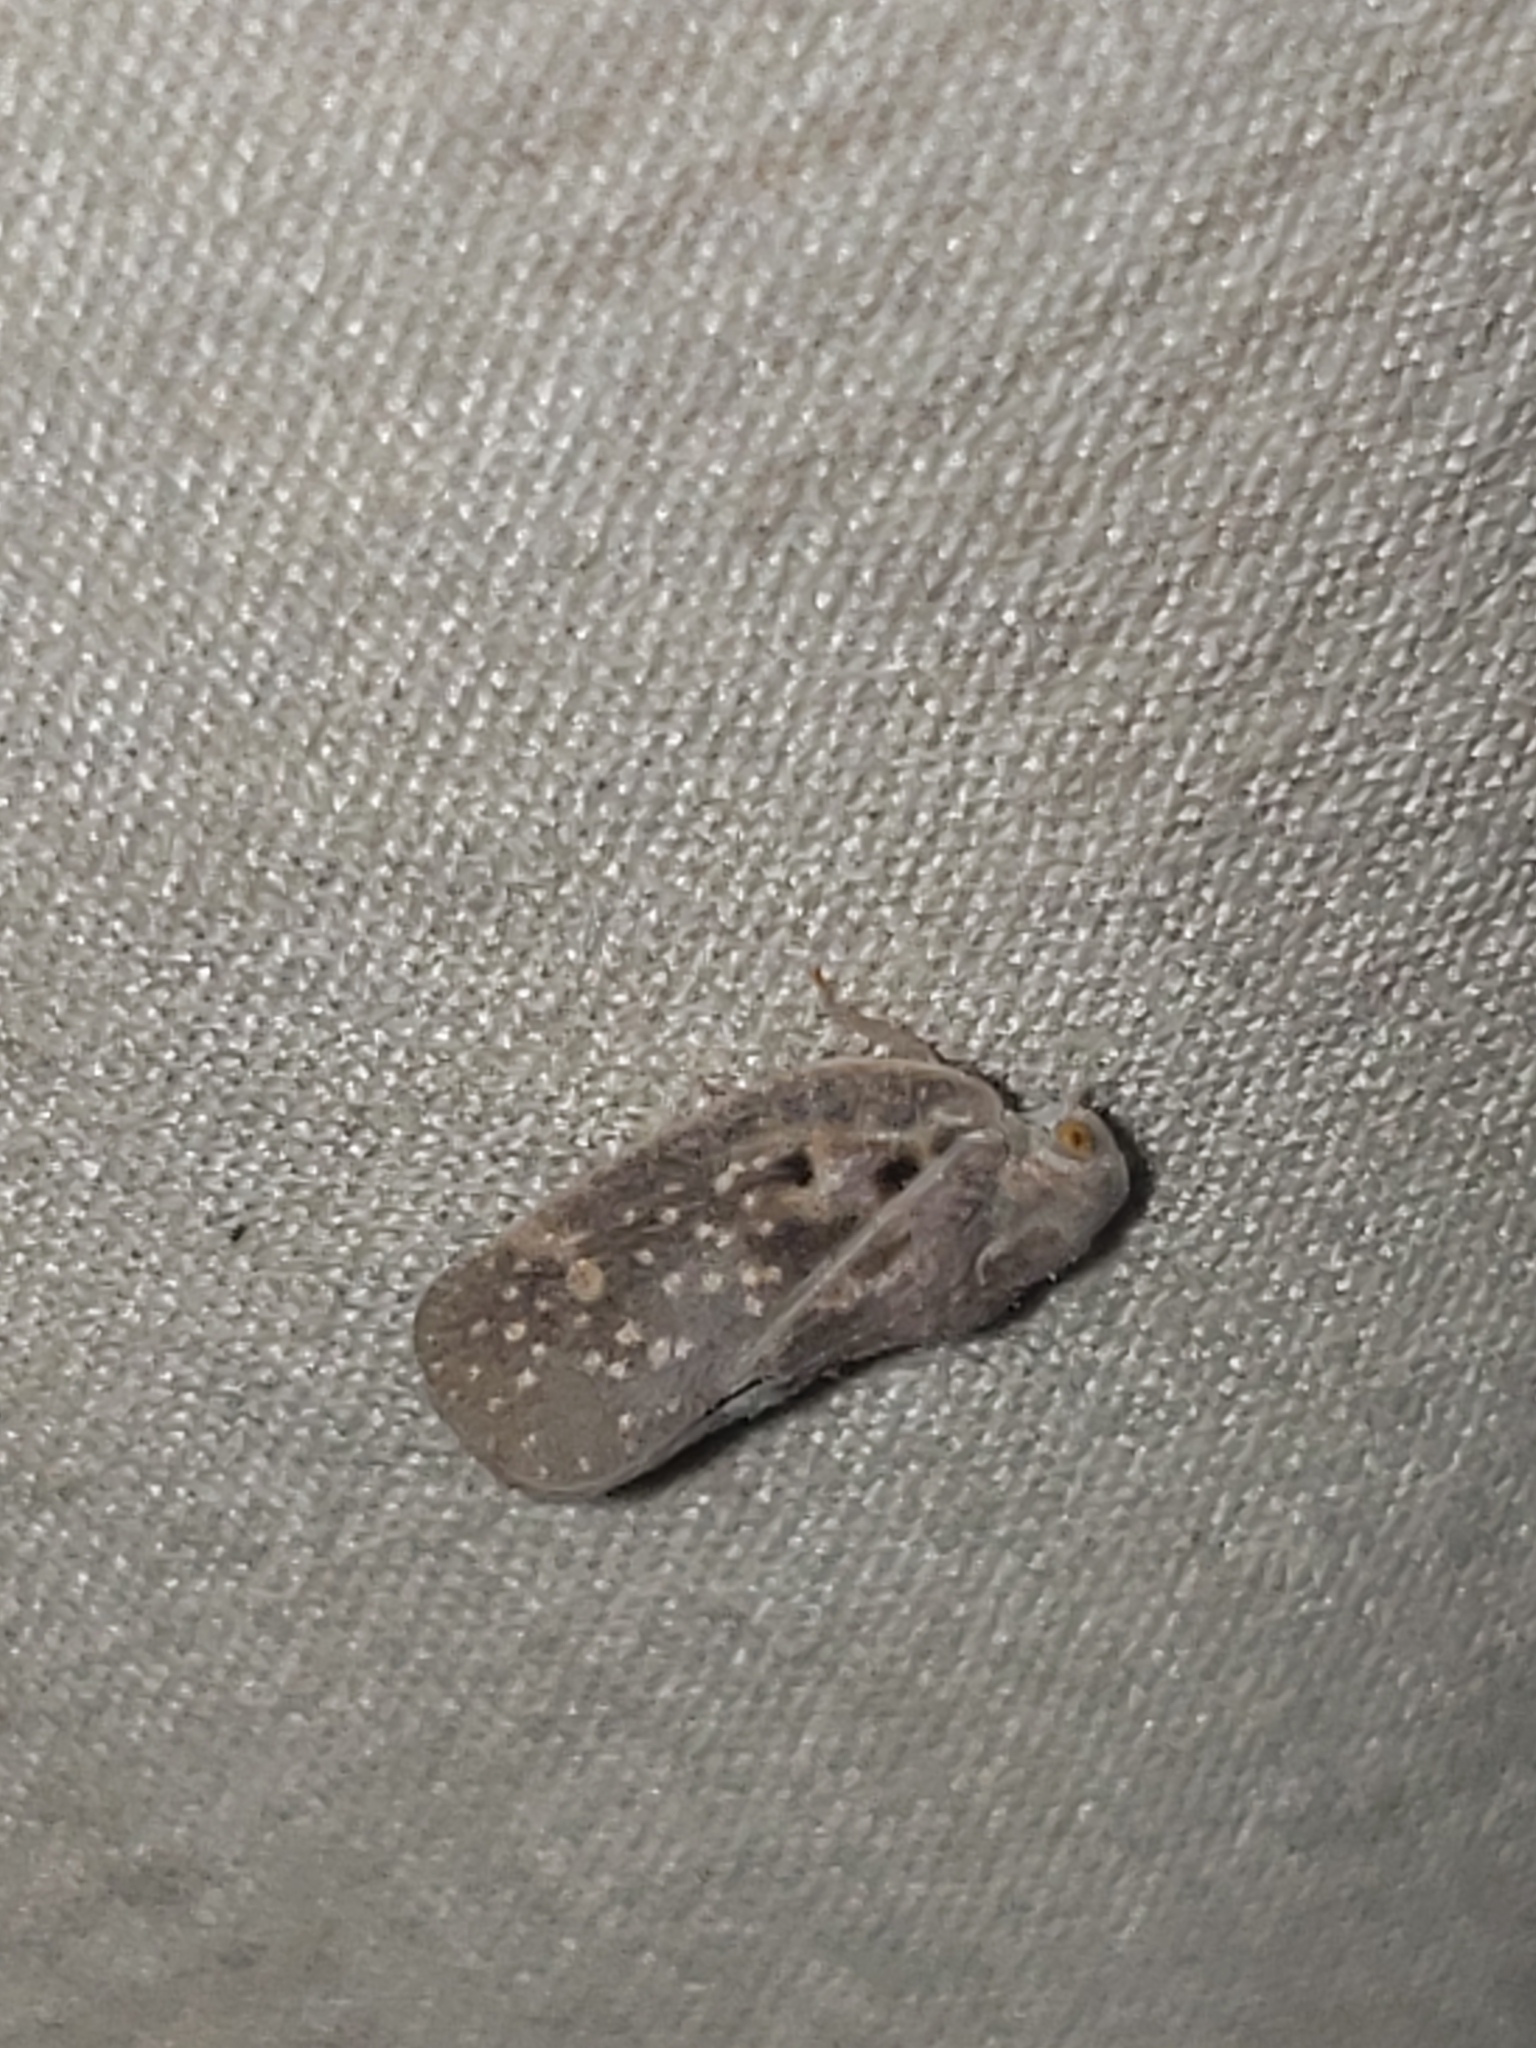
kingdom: Animalia
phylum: Arthropoda
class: Insecta
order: Hemiptera
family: Flatidae
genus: Metcalfa
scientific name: Metcalfa pruinosa
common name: Citrus flatid planthopper
